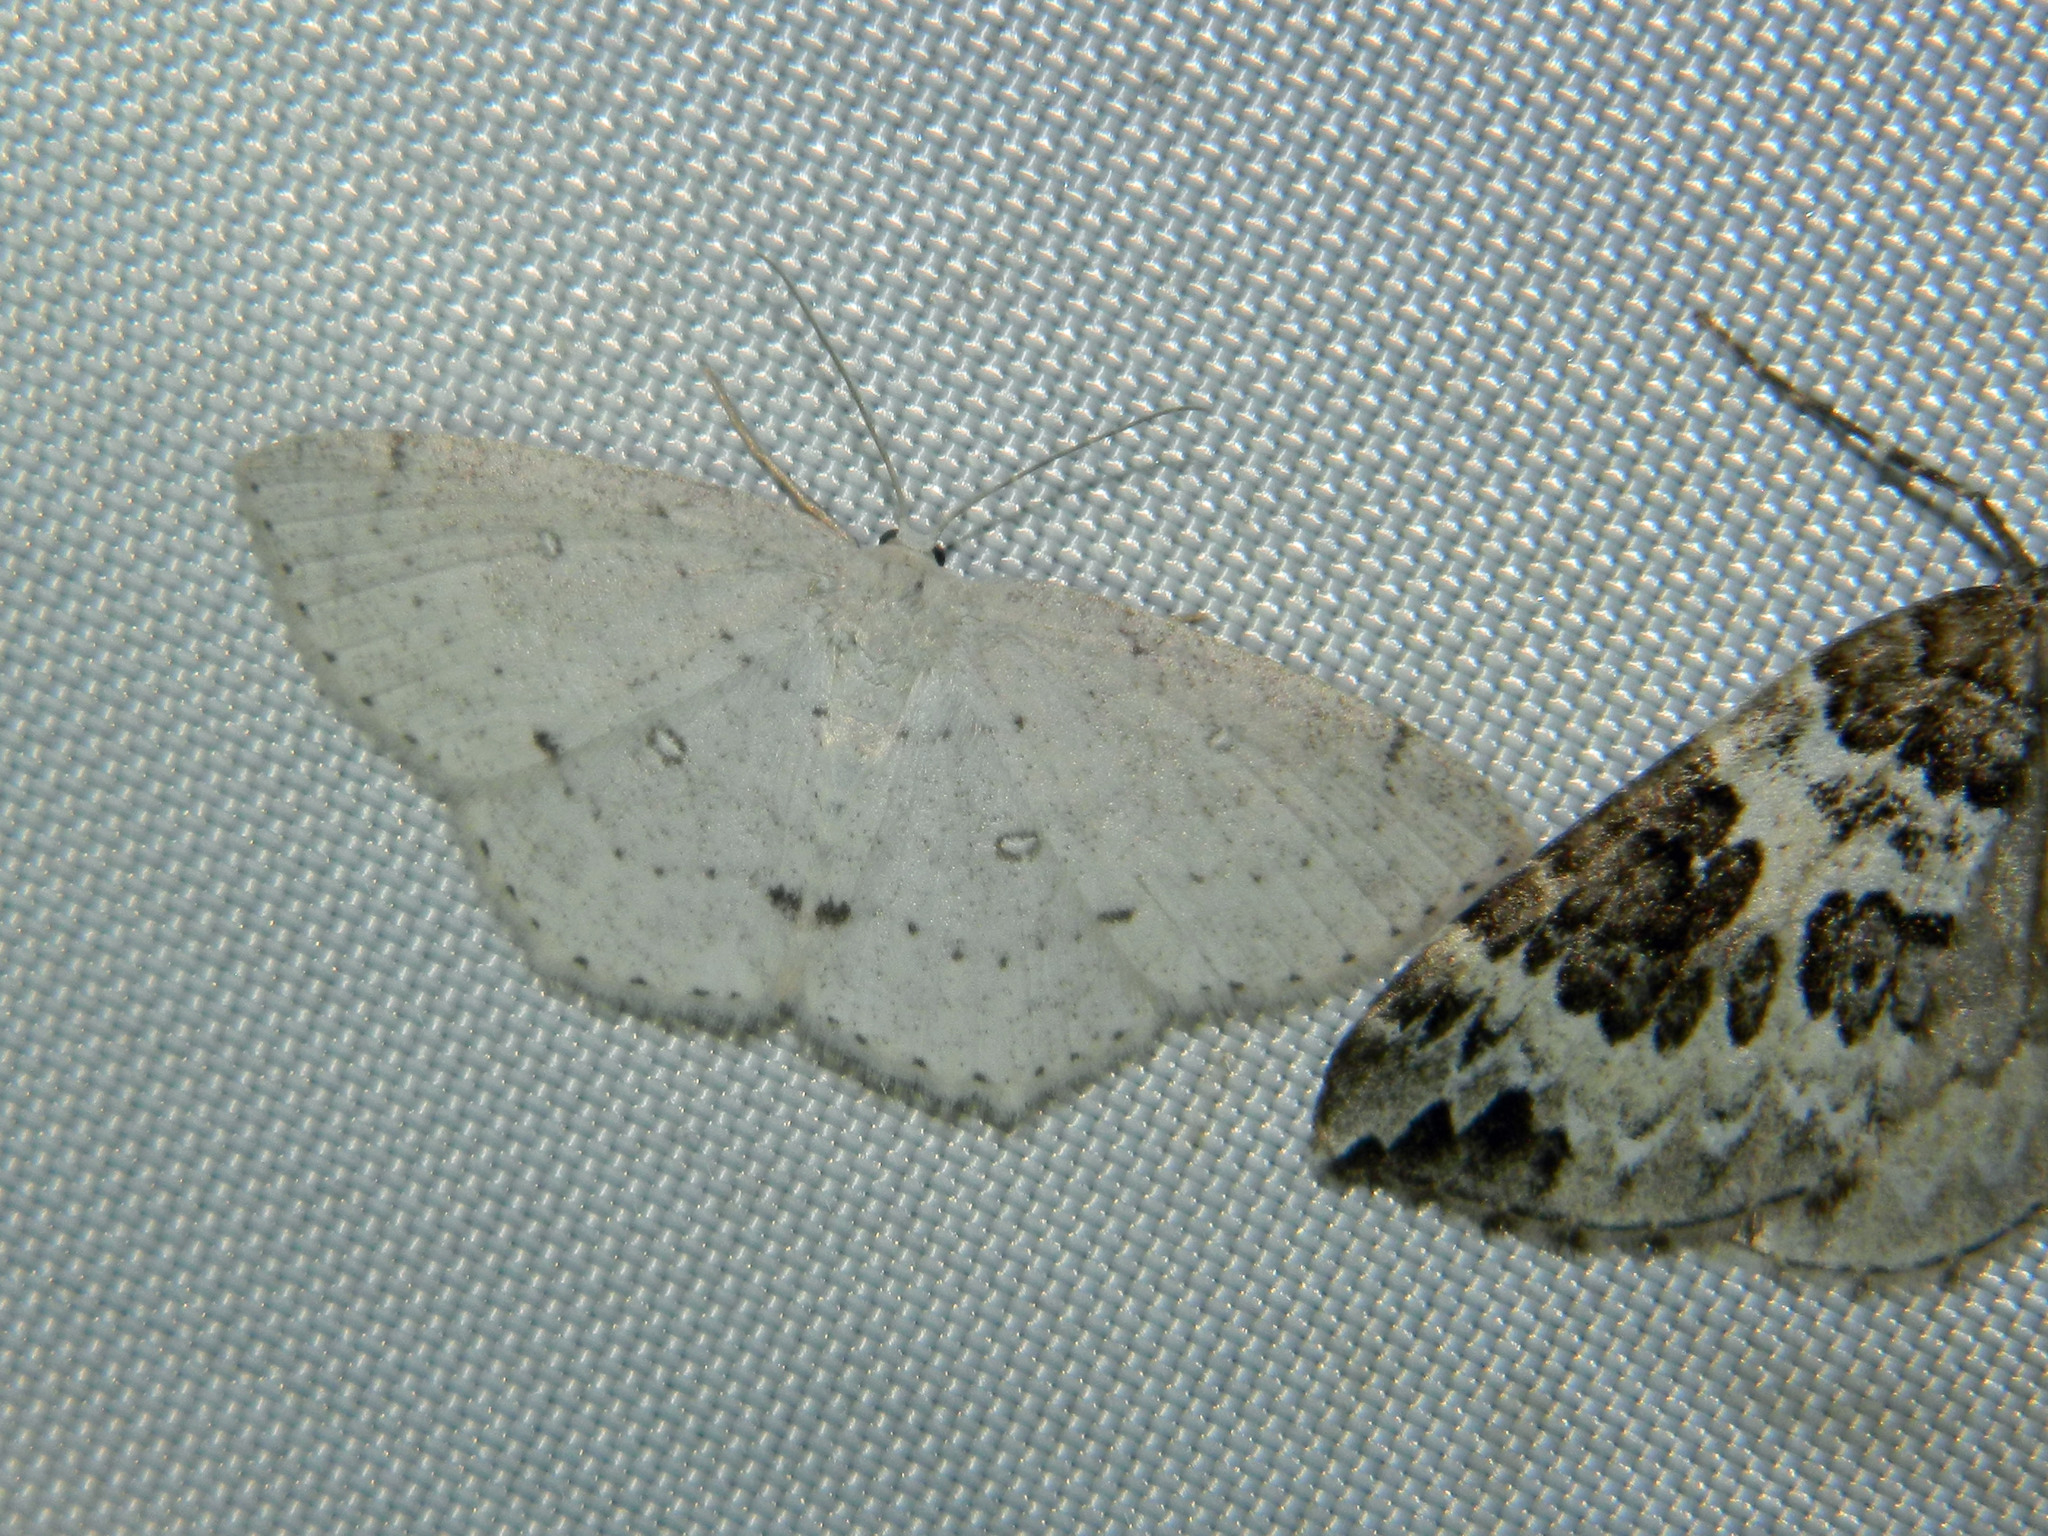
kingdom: Animalia
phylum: Arthropoda
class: Insecta
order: Lepidoptera
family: Geometridae
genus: Cyclophora
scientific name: Cyclophora pendulinaria
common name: Sweet fern geometer
